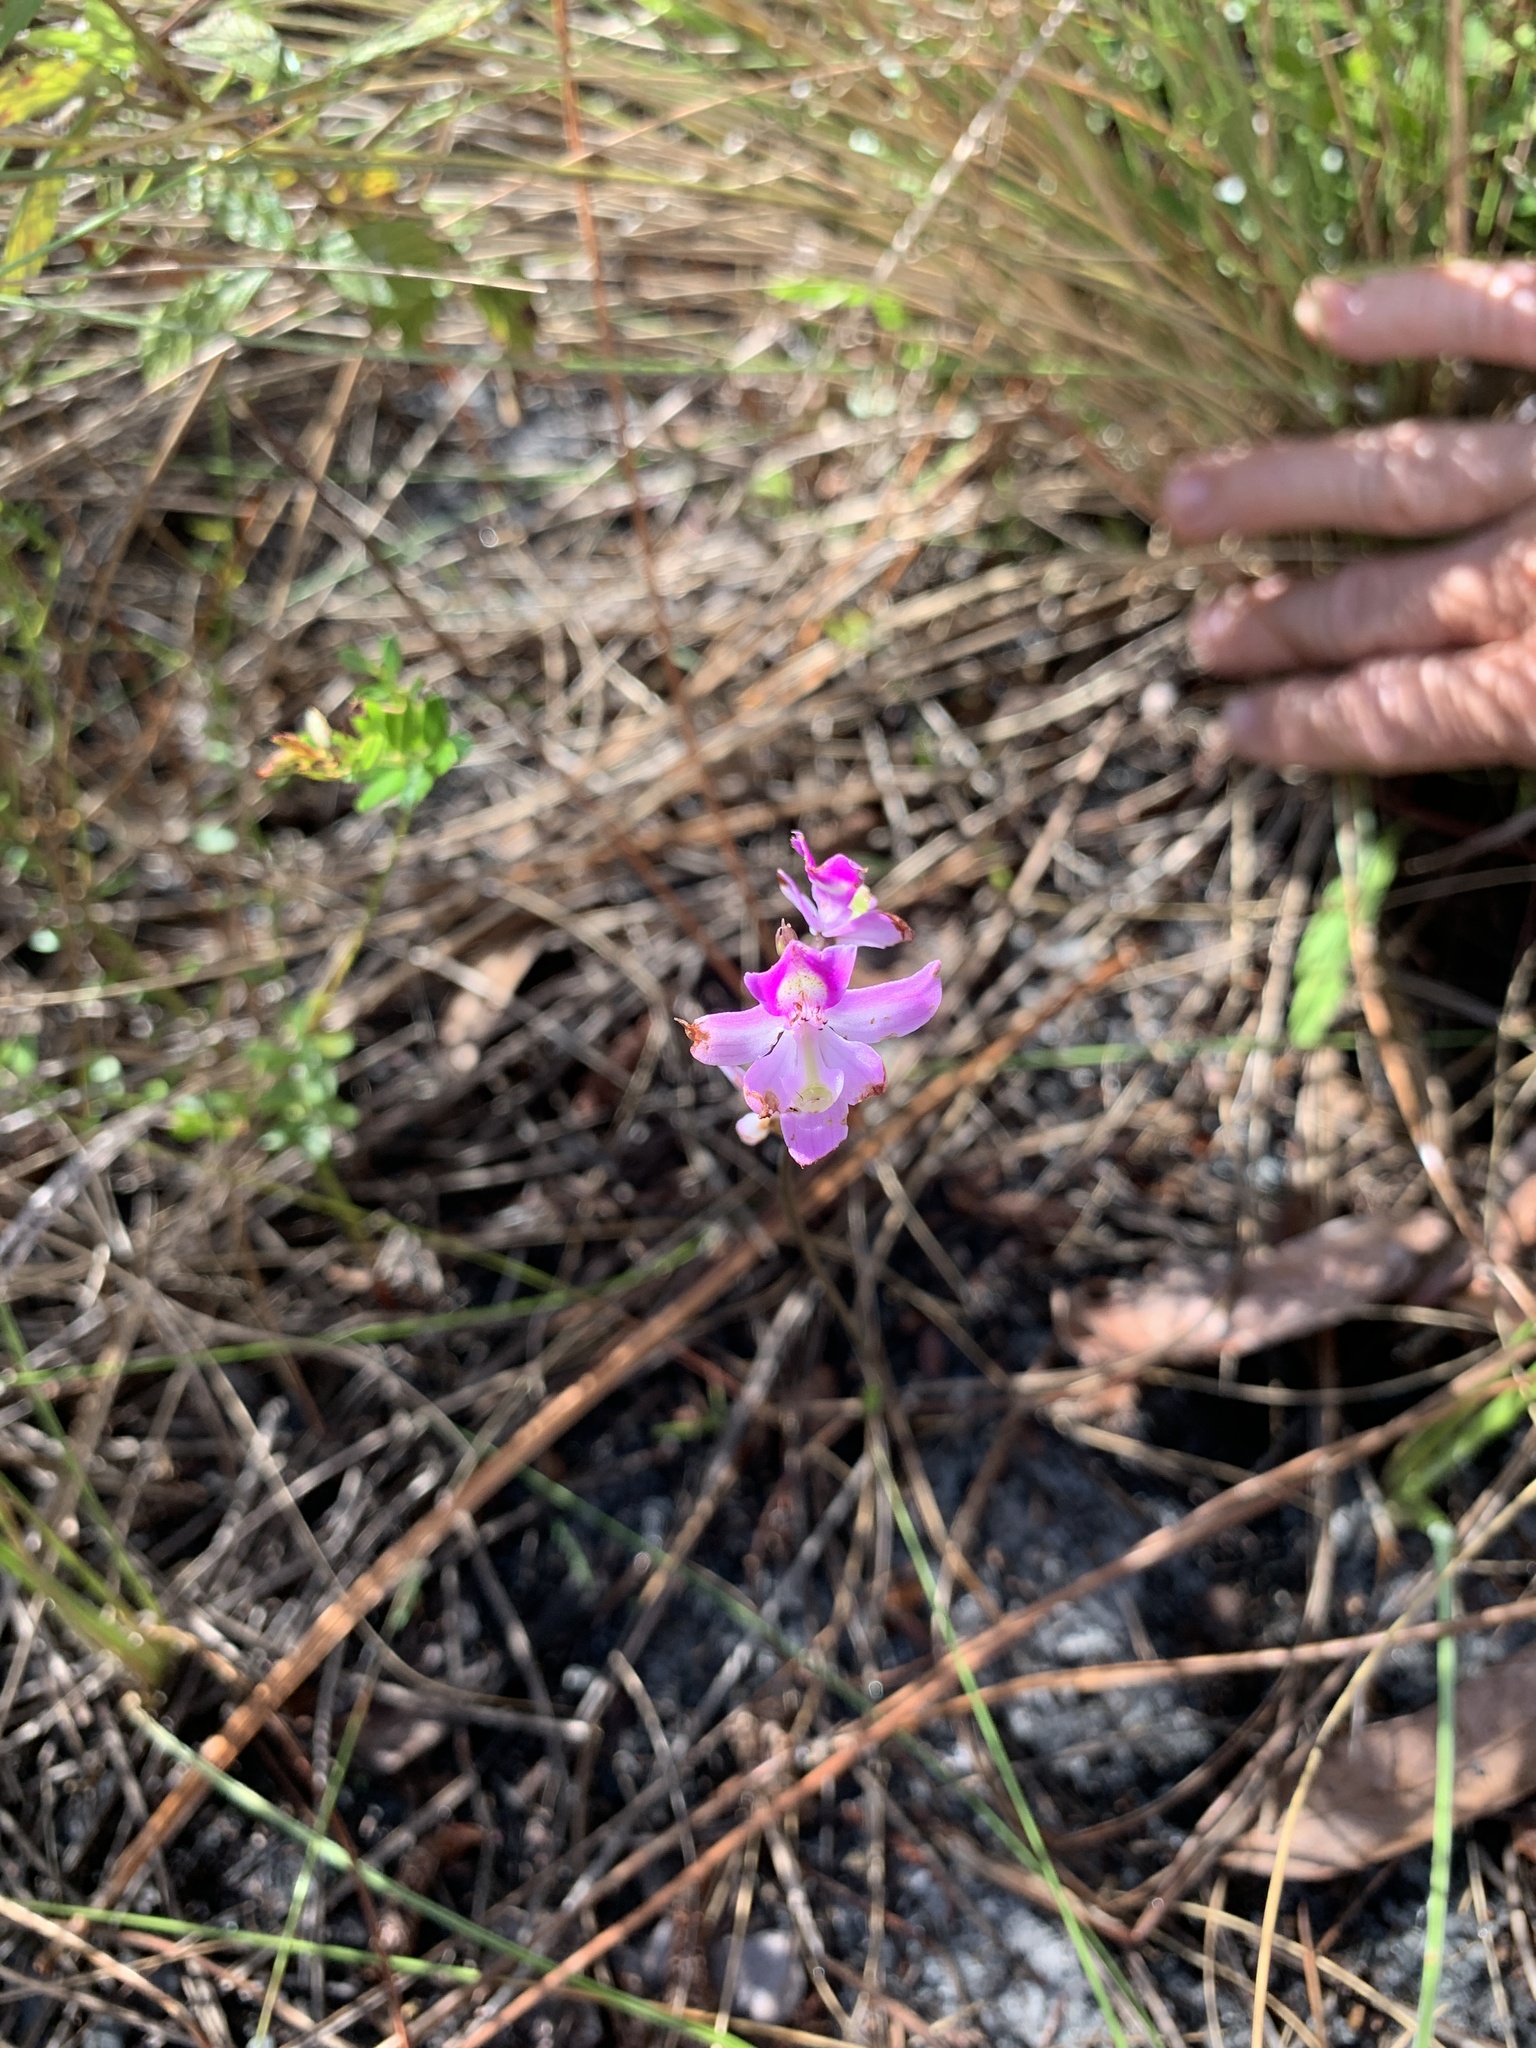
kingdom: Plantae
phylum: Tracheophyta
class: Liliopsida
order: Asparagales
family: Orchidaceae
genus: Calopogon
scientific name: Calopogon multiflorus
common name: Many-flowered grass-pink orchid
